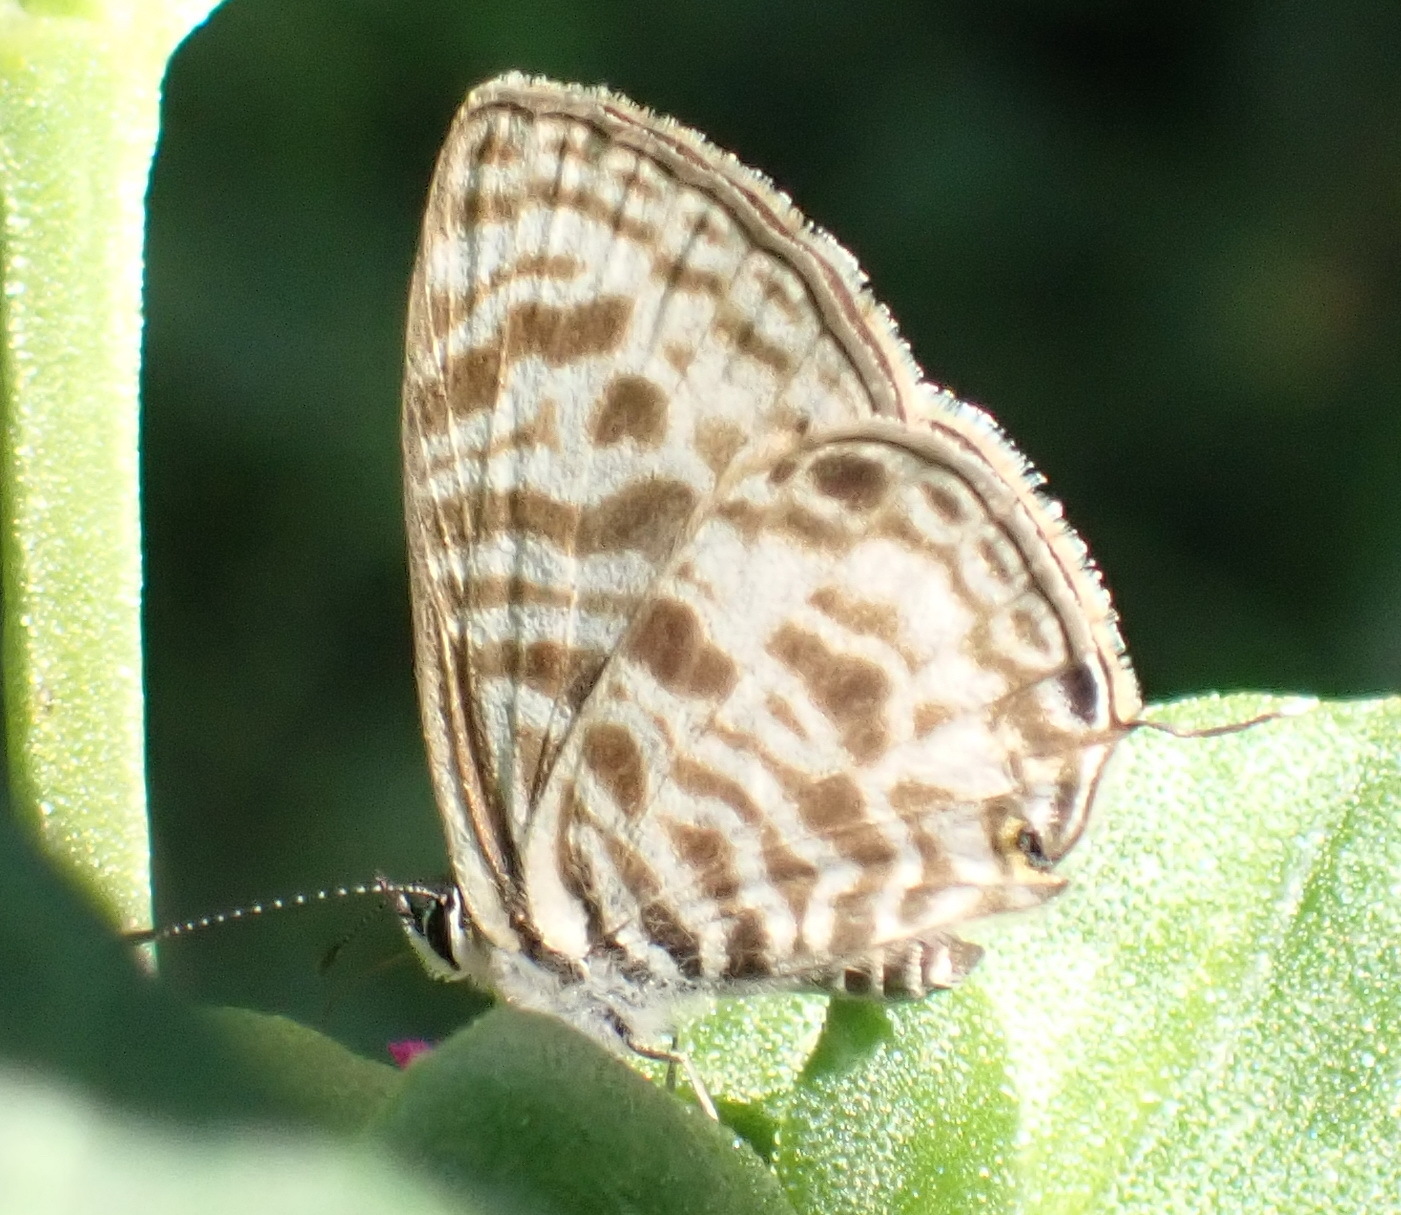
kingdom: Animalia
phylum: Arthropoda
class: Insecta
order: Lepidoptera
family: Lycaenidae
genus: Leptotes
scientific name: Leptotes
